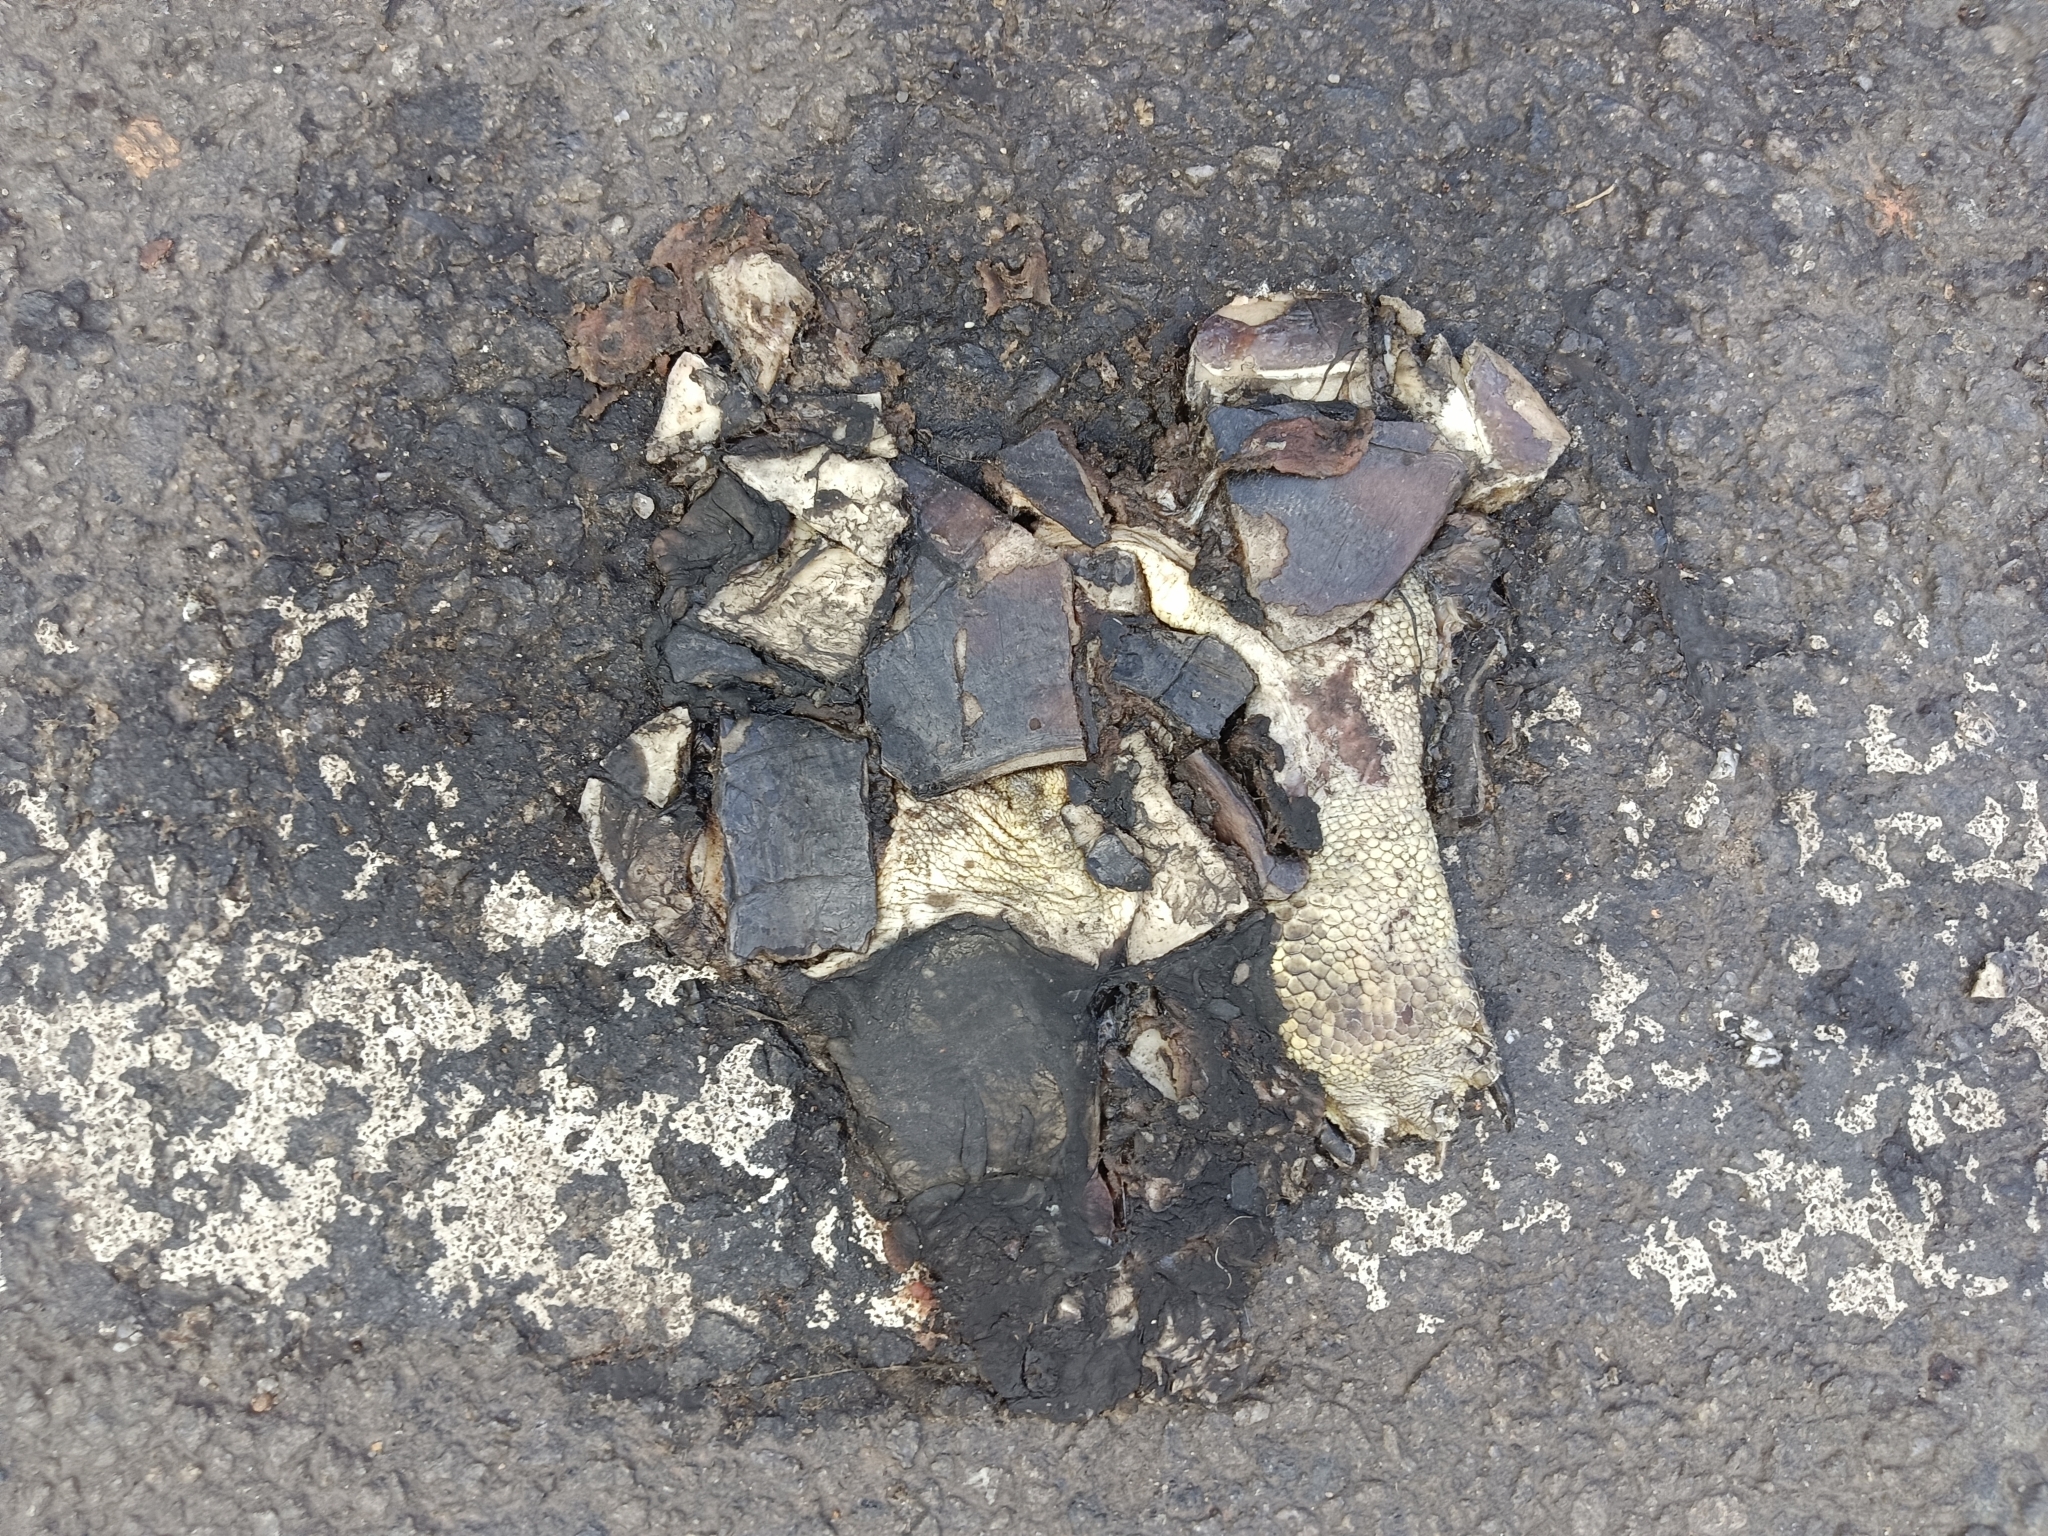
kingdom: Animalia
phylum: Chordata
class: Testudines
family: Geoemydidae
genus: Melanochelys
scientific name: Melanochelys trijuga
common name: Indian black turtle
